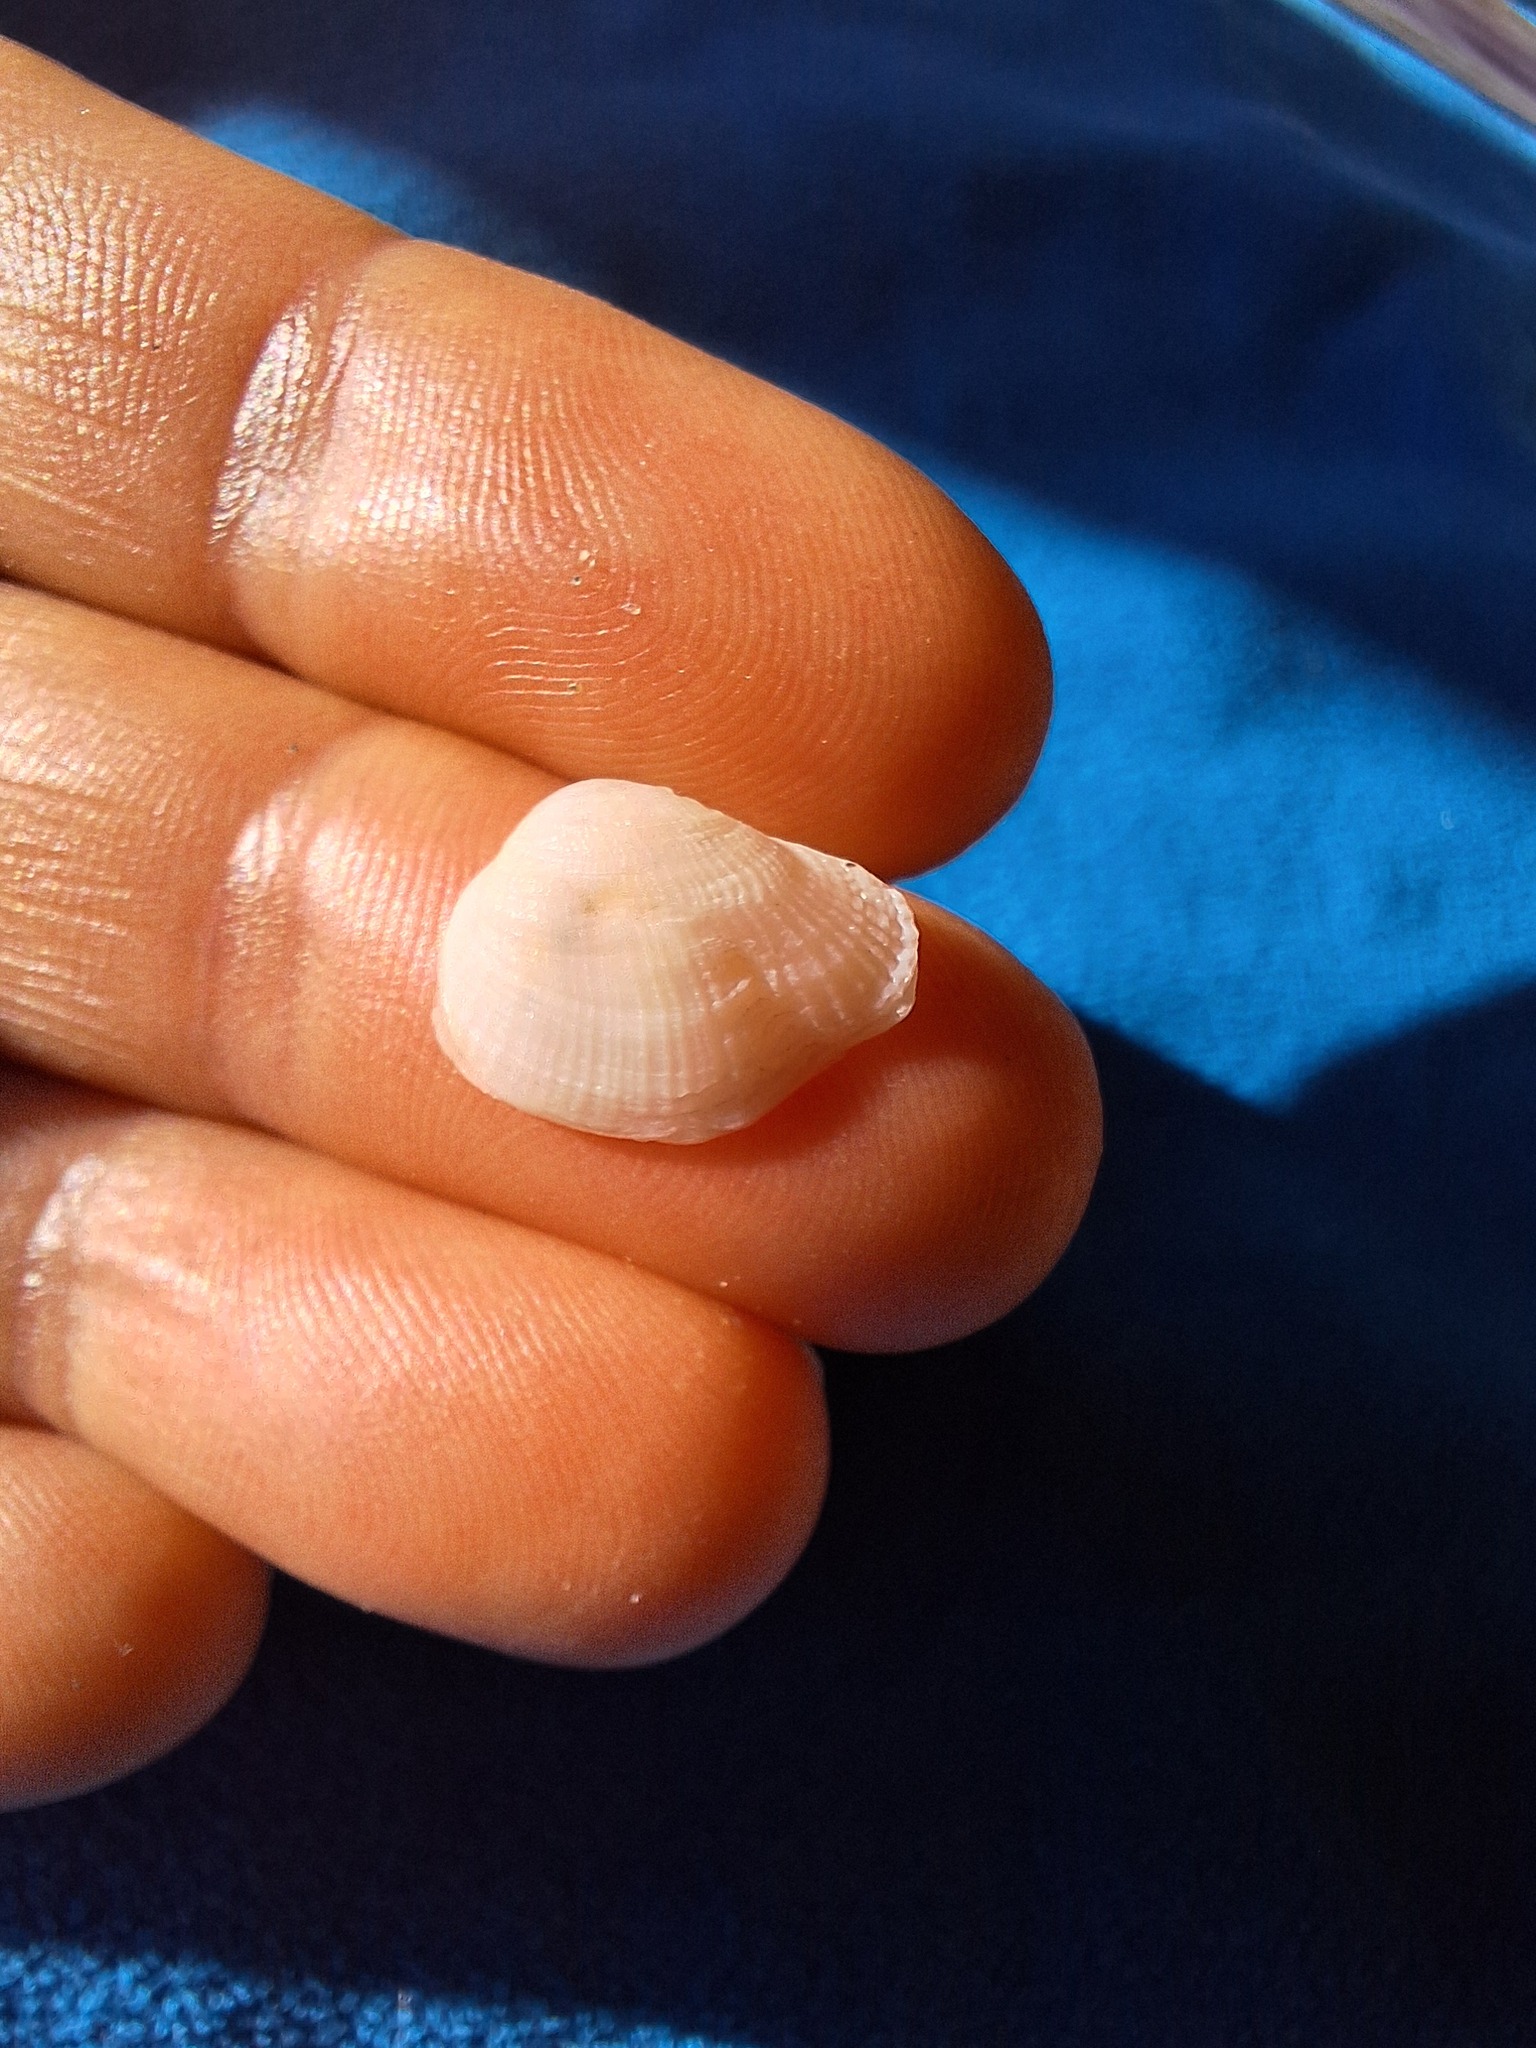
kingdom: Animalia
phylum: Mollusca
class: Bivalvia
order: Venerida
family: Veneridae
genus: Petricola
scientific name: Petricola lithophaga
